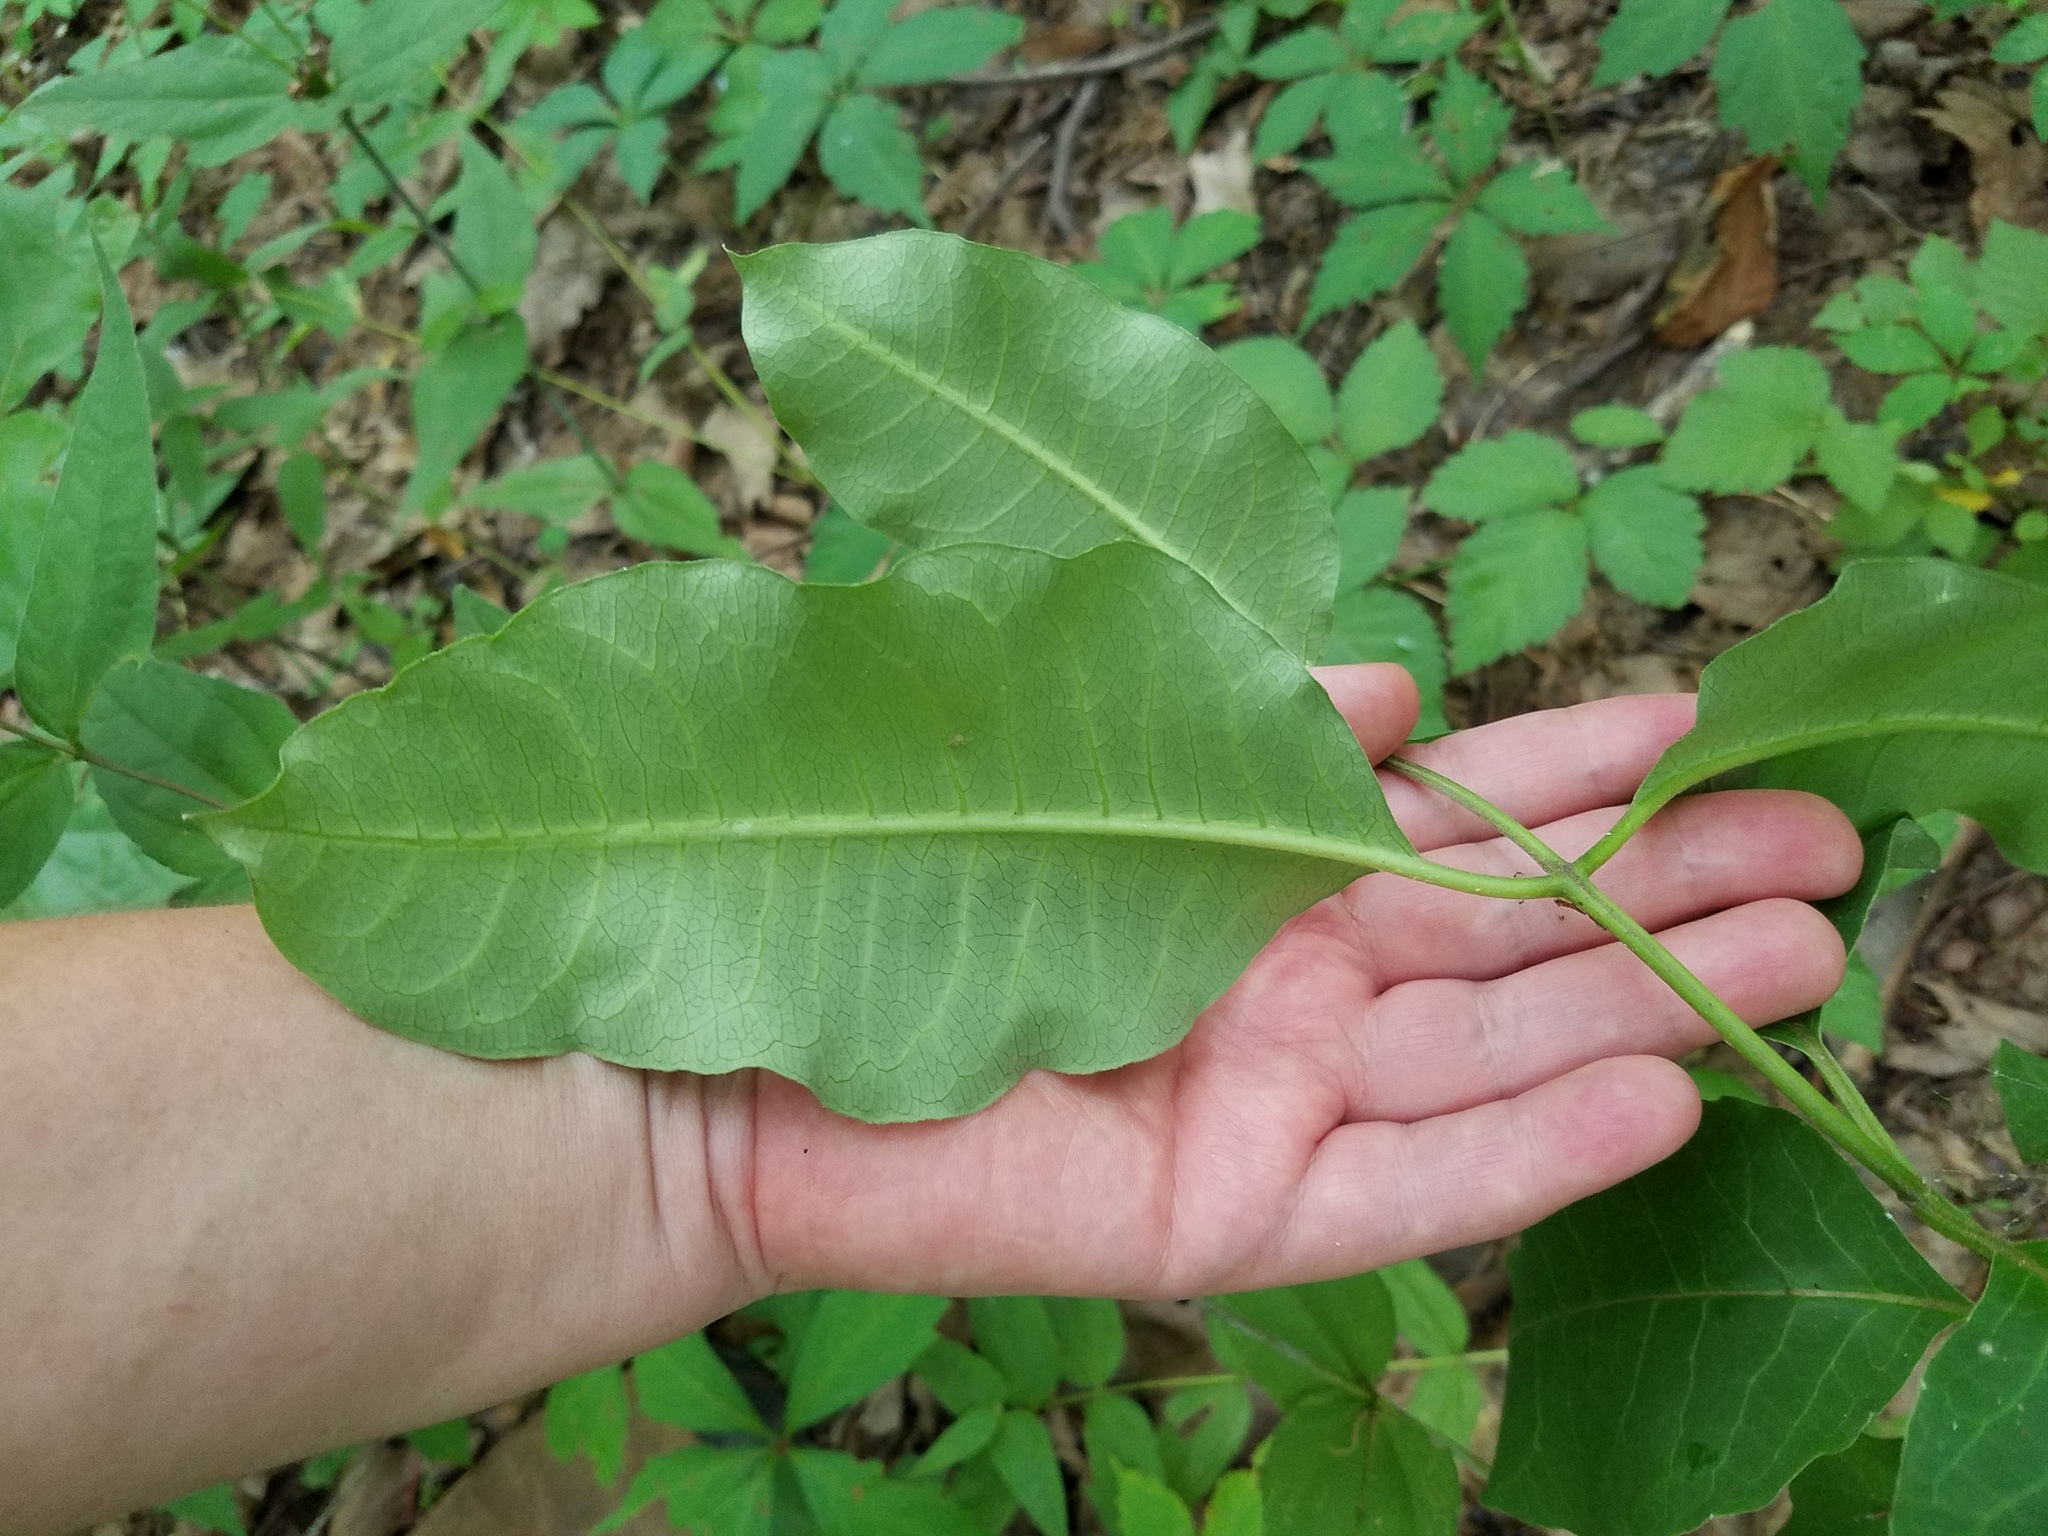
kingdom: Plantae
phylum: Tracheophyta
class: Magnoliopsida
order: Gentianales
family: Apocynaceae
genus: Asclepias
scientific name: Asclepias variegata
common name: Variegated milkweed
